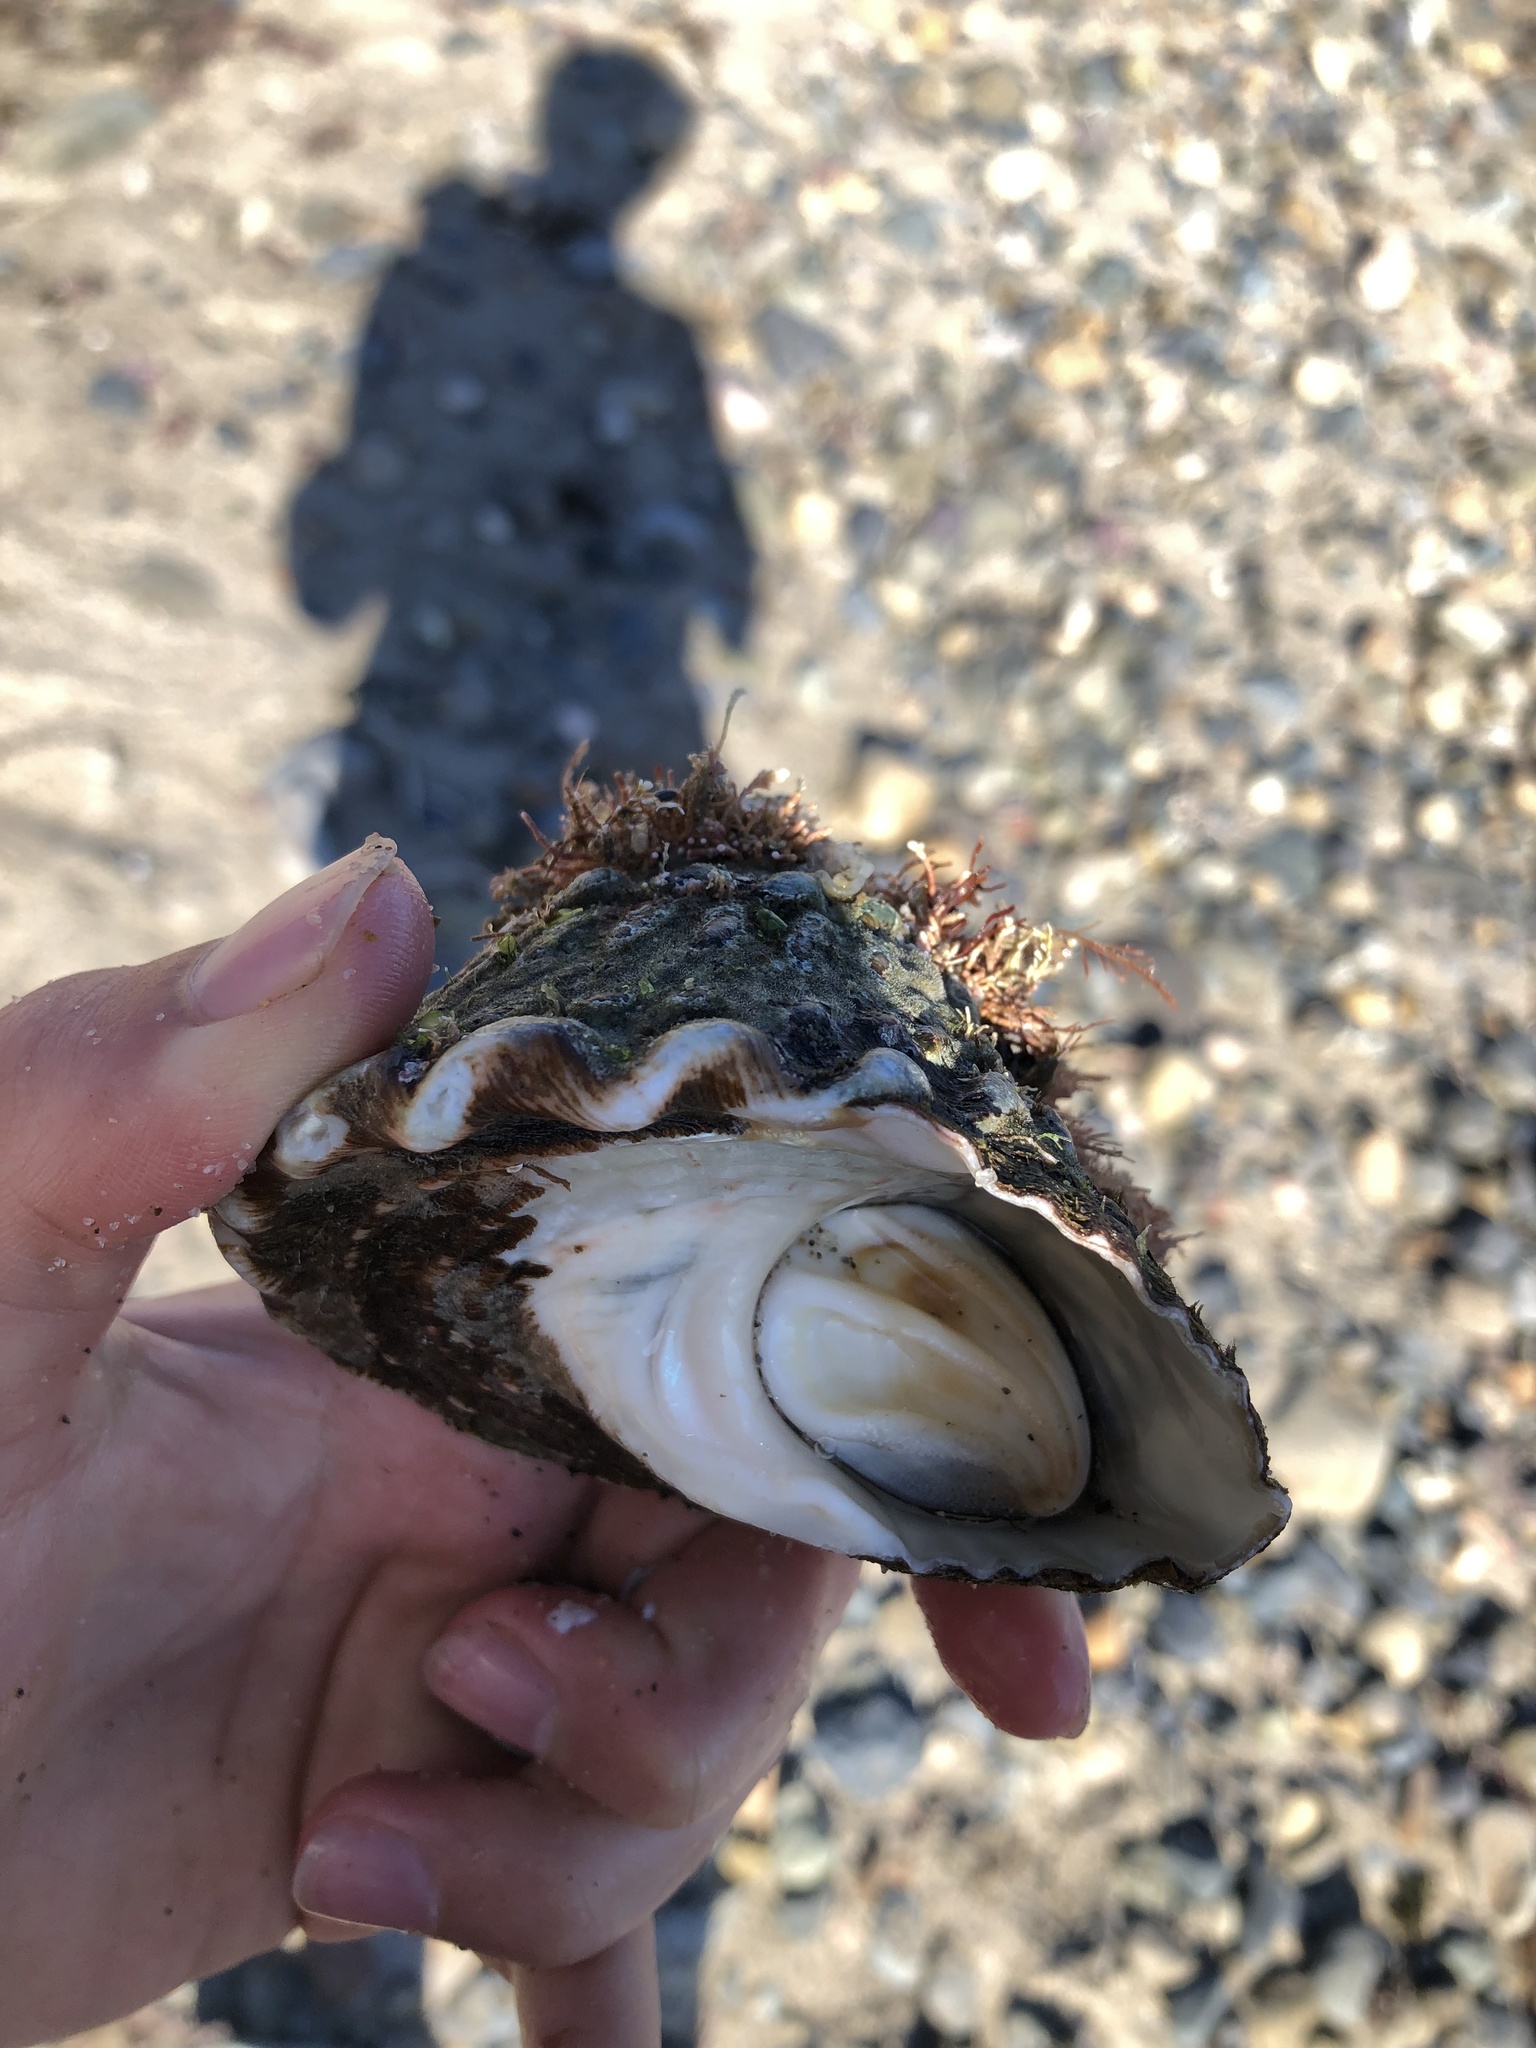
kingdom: Animalia
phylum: Mollusca
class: Gastropoda
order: Trochida
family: Turbinidae
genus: Megastraea
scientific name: Megastraea undosa
